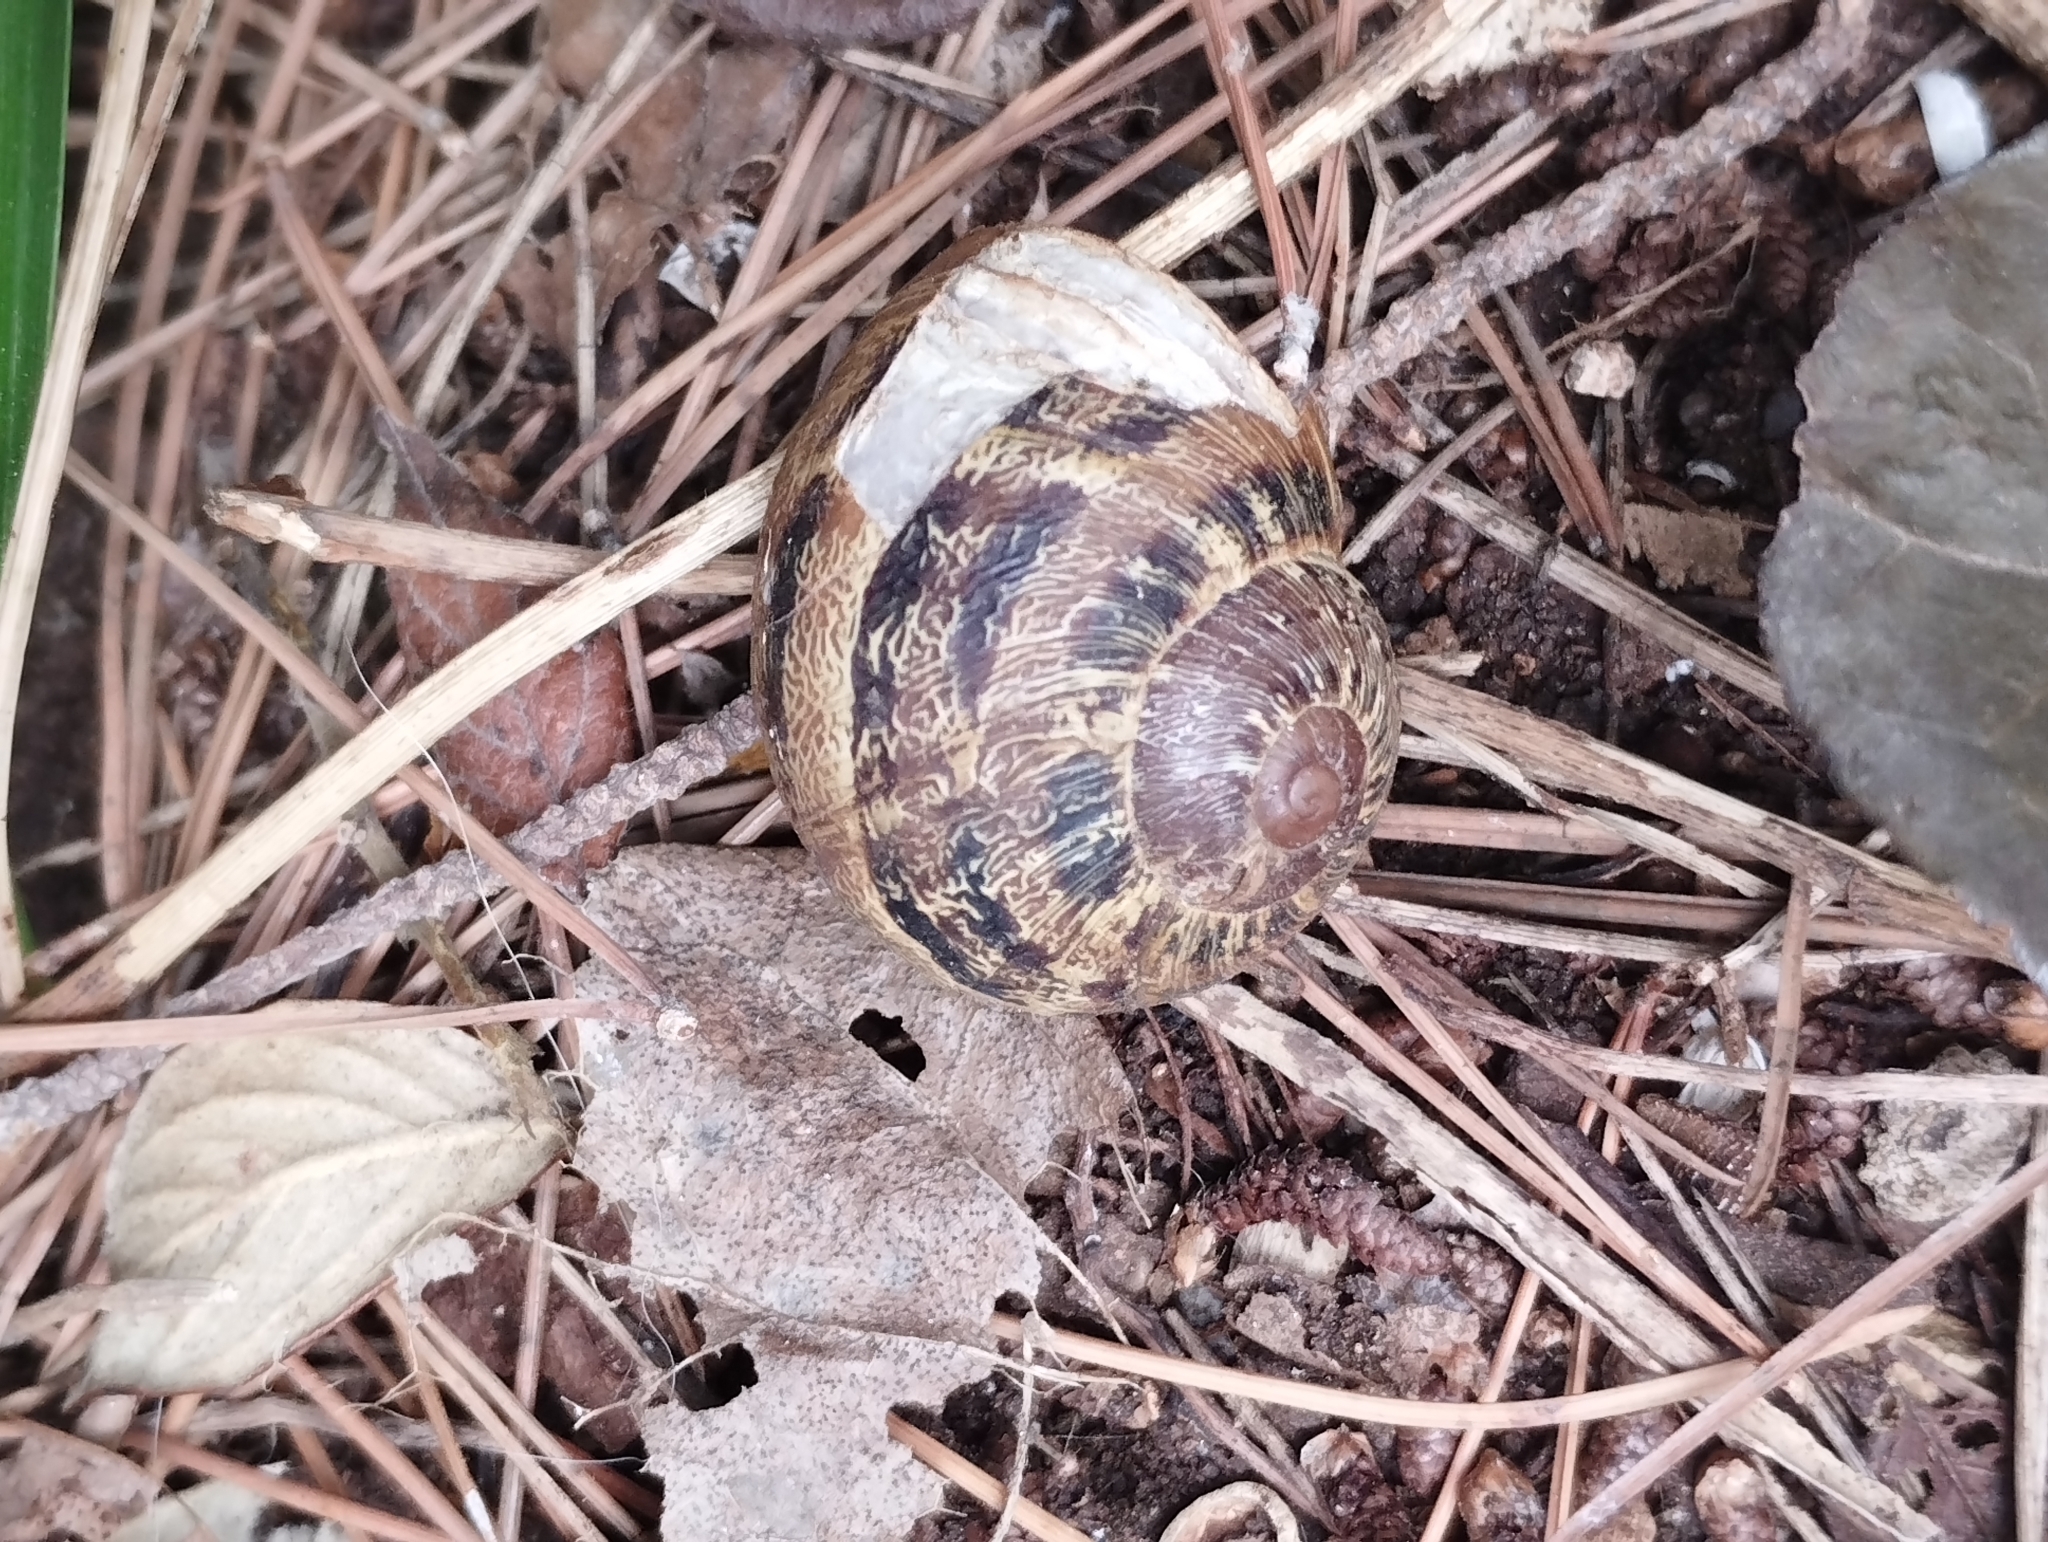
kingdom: Animalia
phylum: Mollusca
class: Gastropoda
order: Stylommatophora
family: Helicidae
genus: Cornu
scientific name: Cornu aspersum
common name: Brown garden snail
